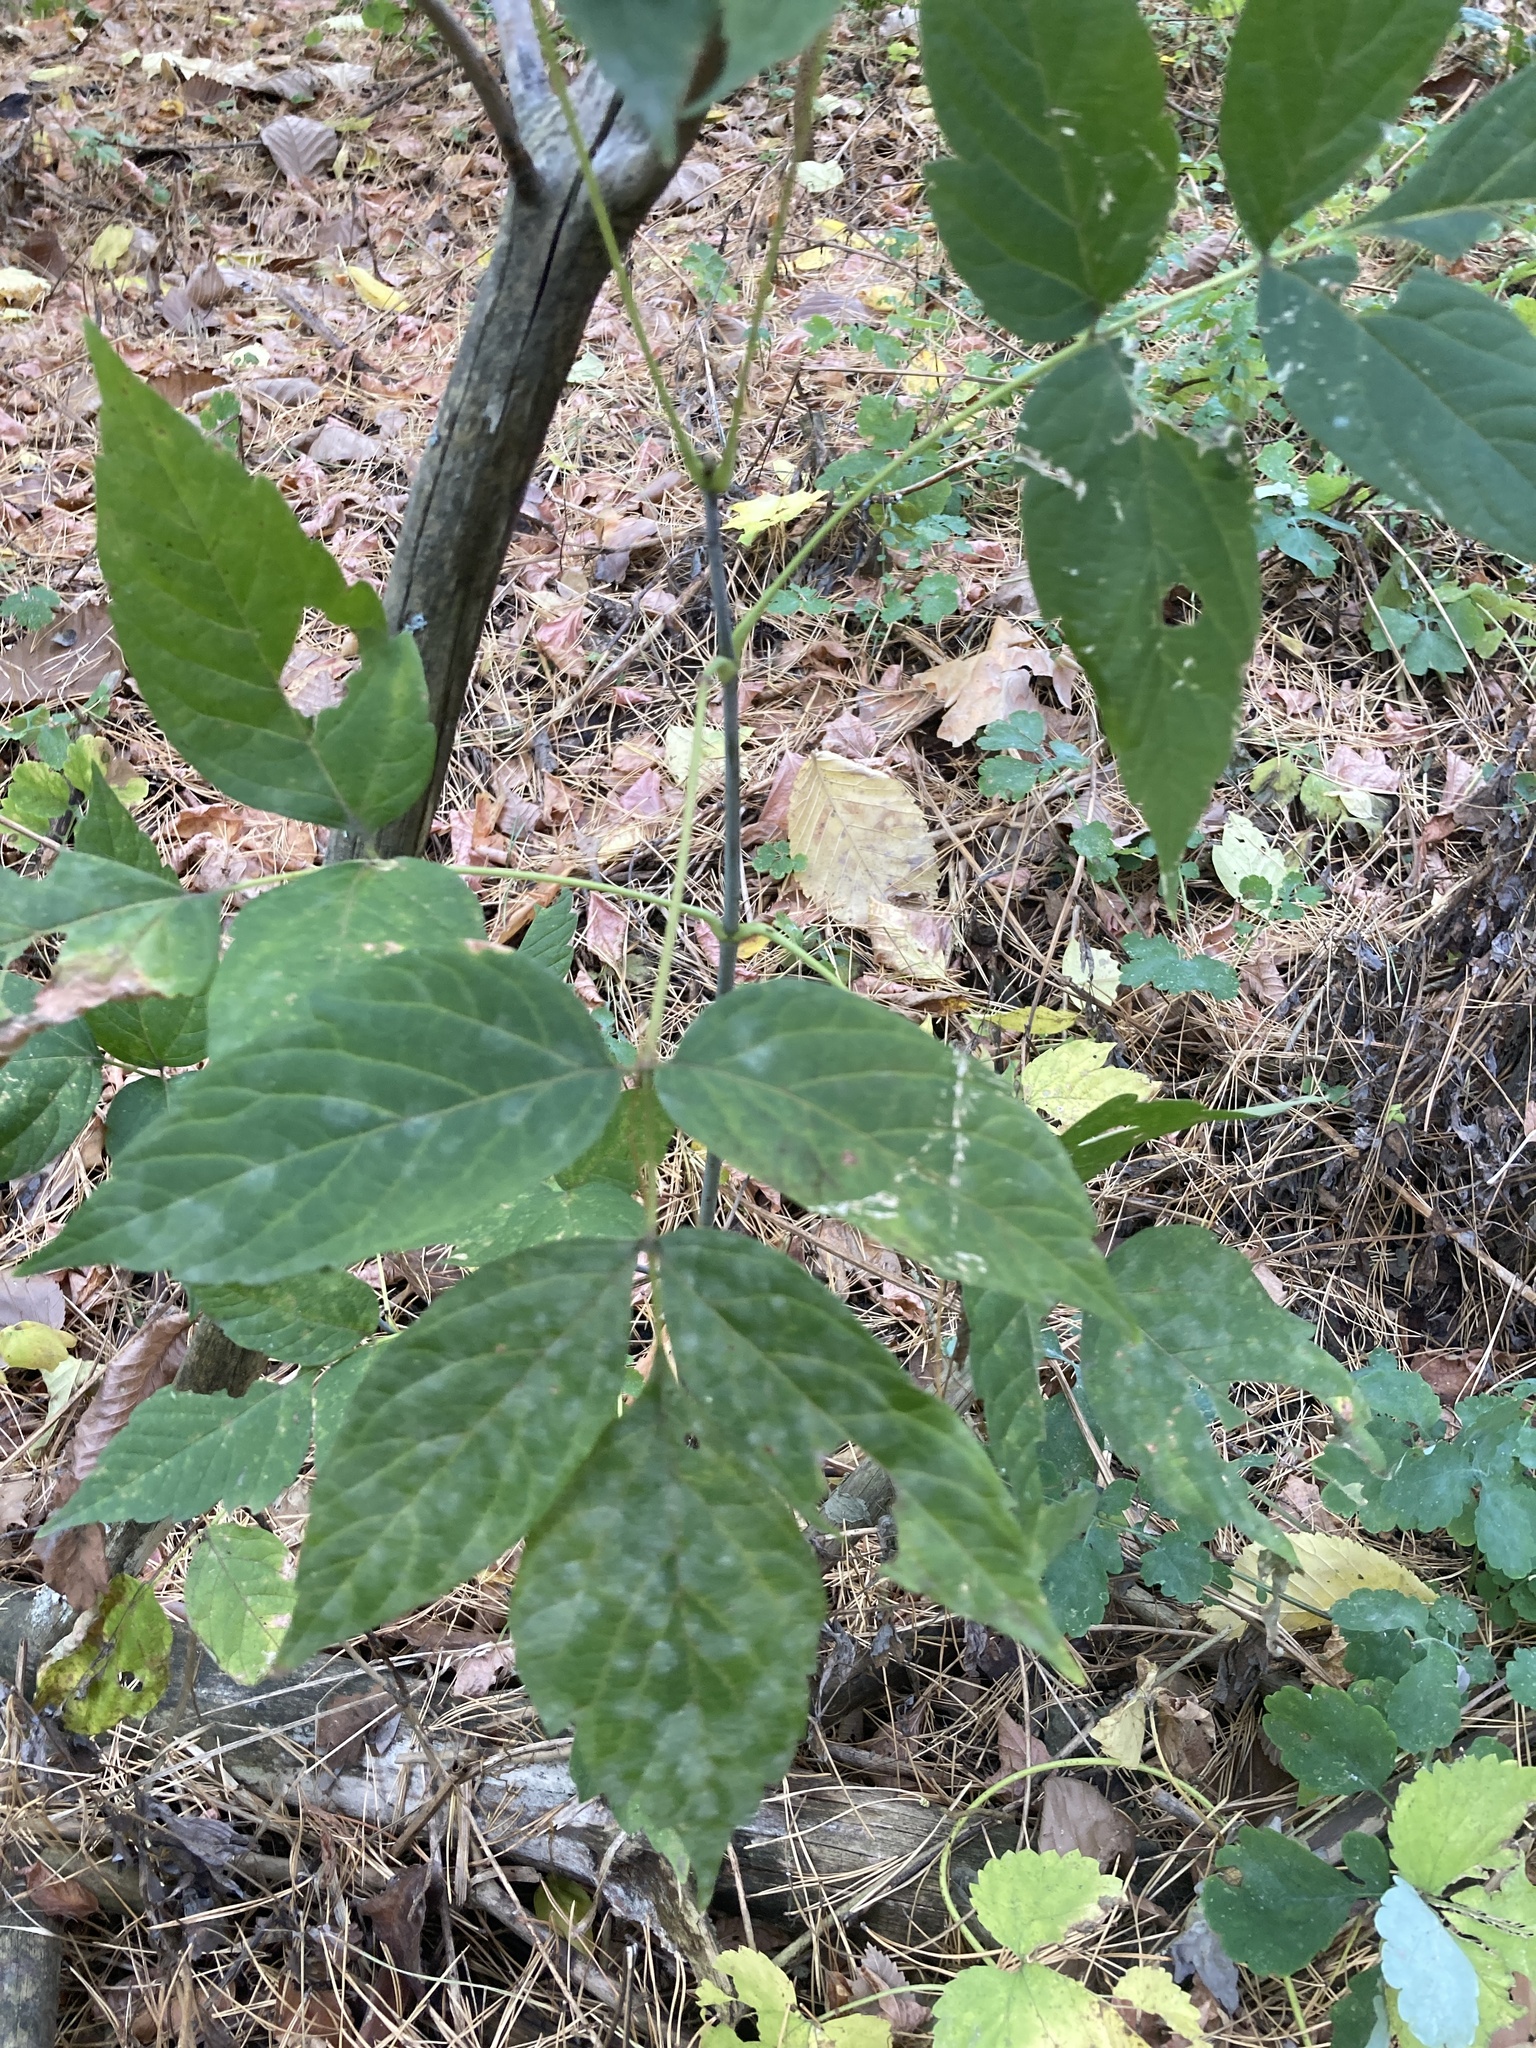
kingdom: Plantae
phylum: Tracheophyta
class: Magnoliopsida
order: Sapindales
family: Sapindaceae
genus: Acer
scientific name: Acer negundo
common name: Ashleaf maple
